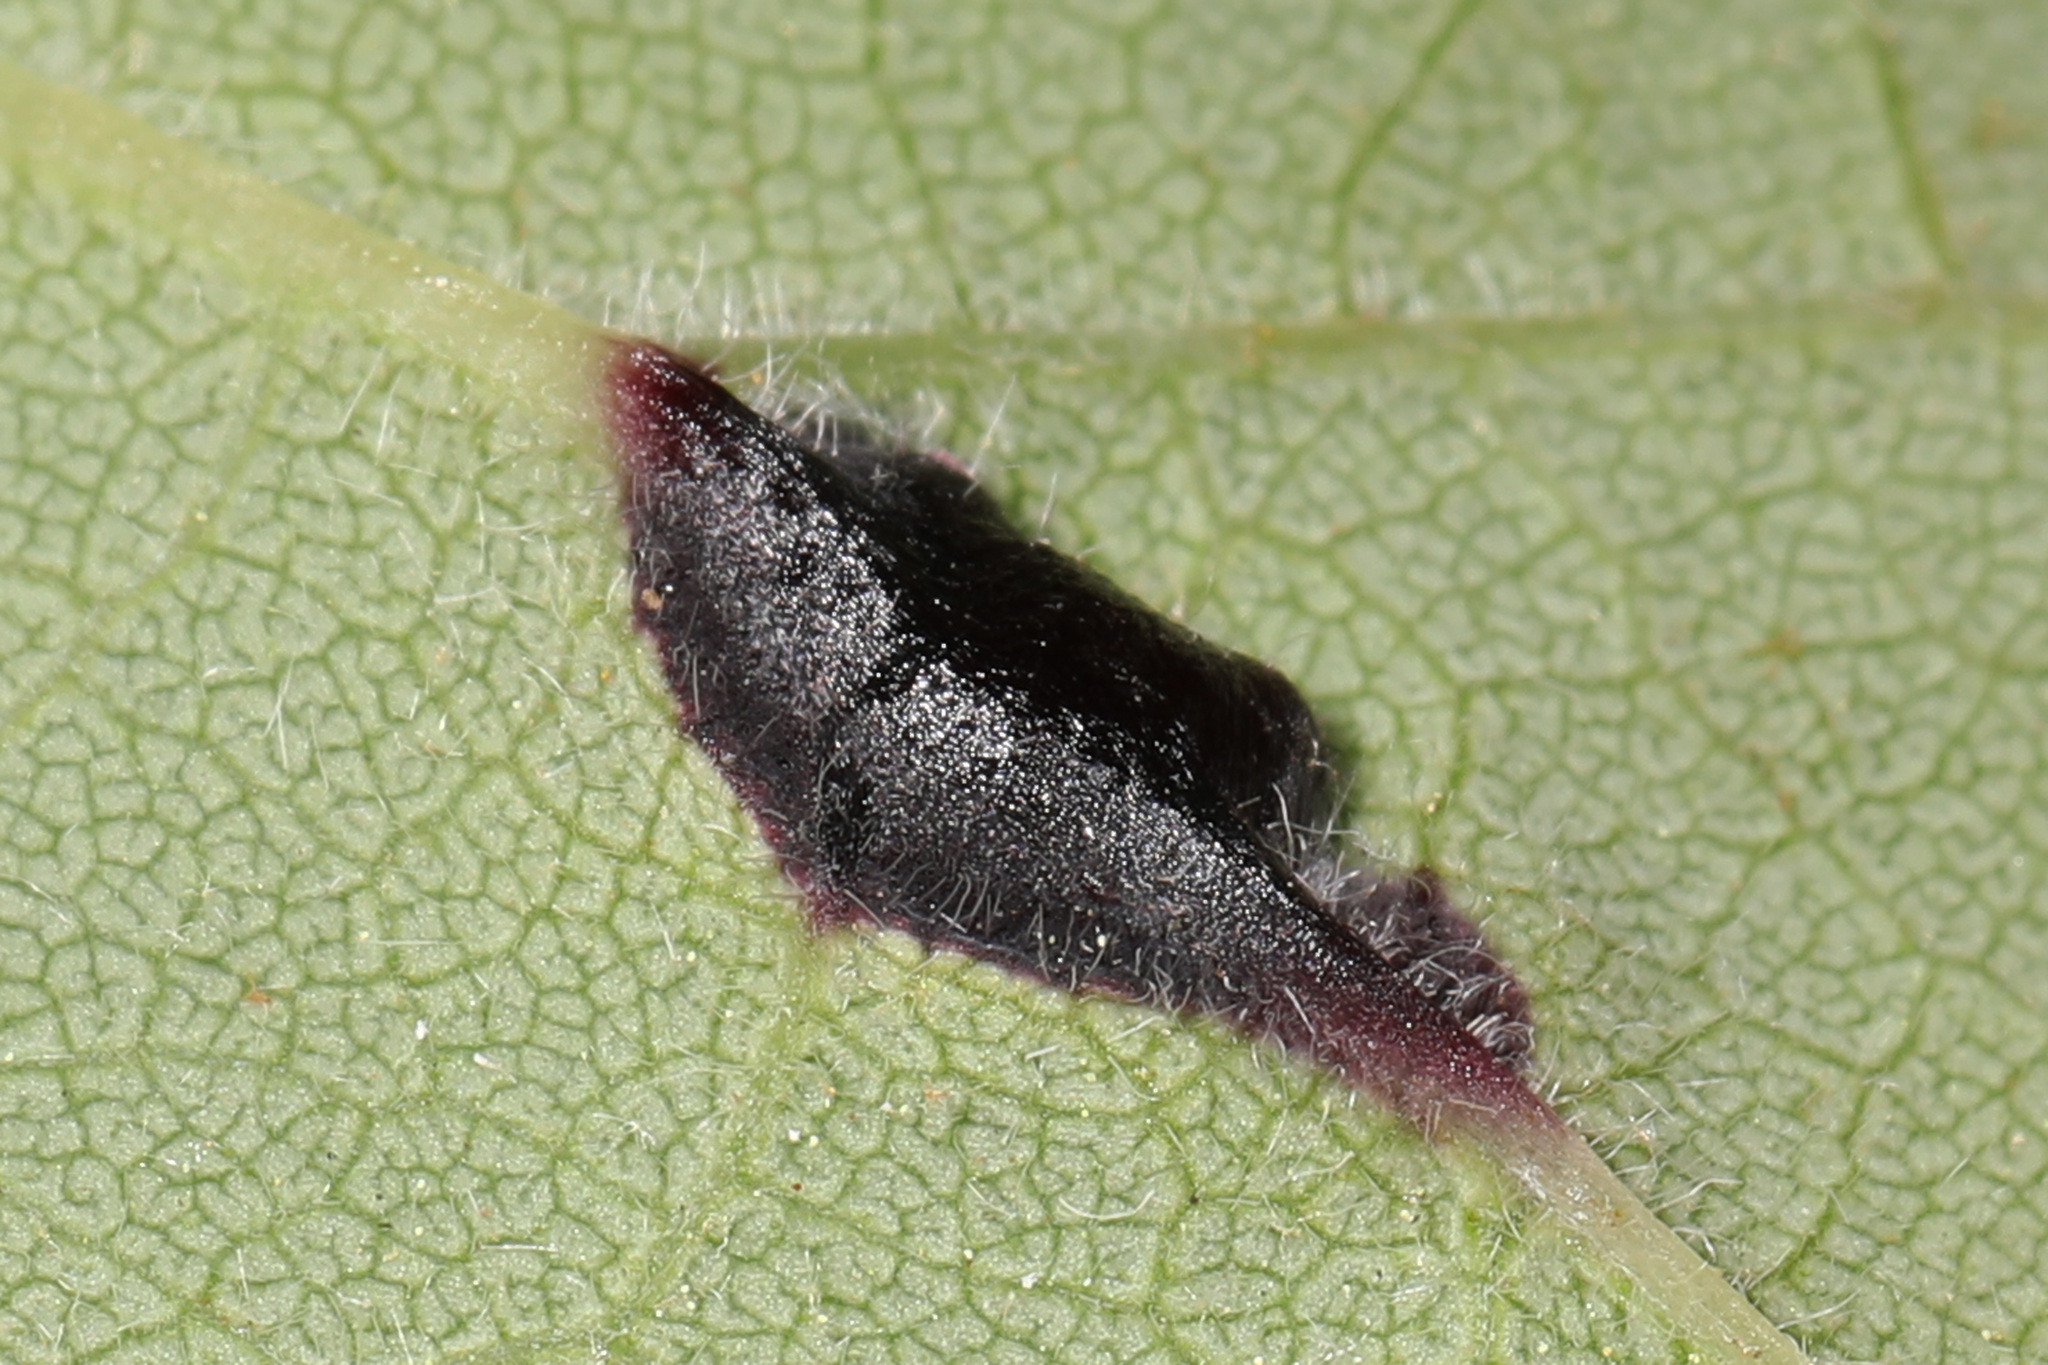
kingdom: Animalia
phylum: Arthropoda
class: Insecta
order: Diptera
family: Cecidomyiidae
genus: Dasineura
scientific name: Dasineura pellex
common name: Ash bullet gall midge
